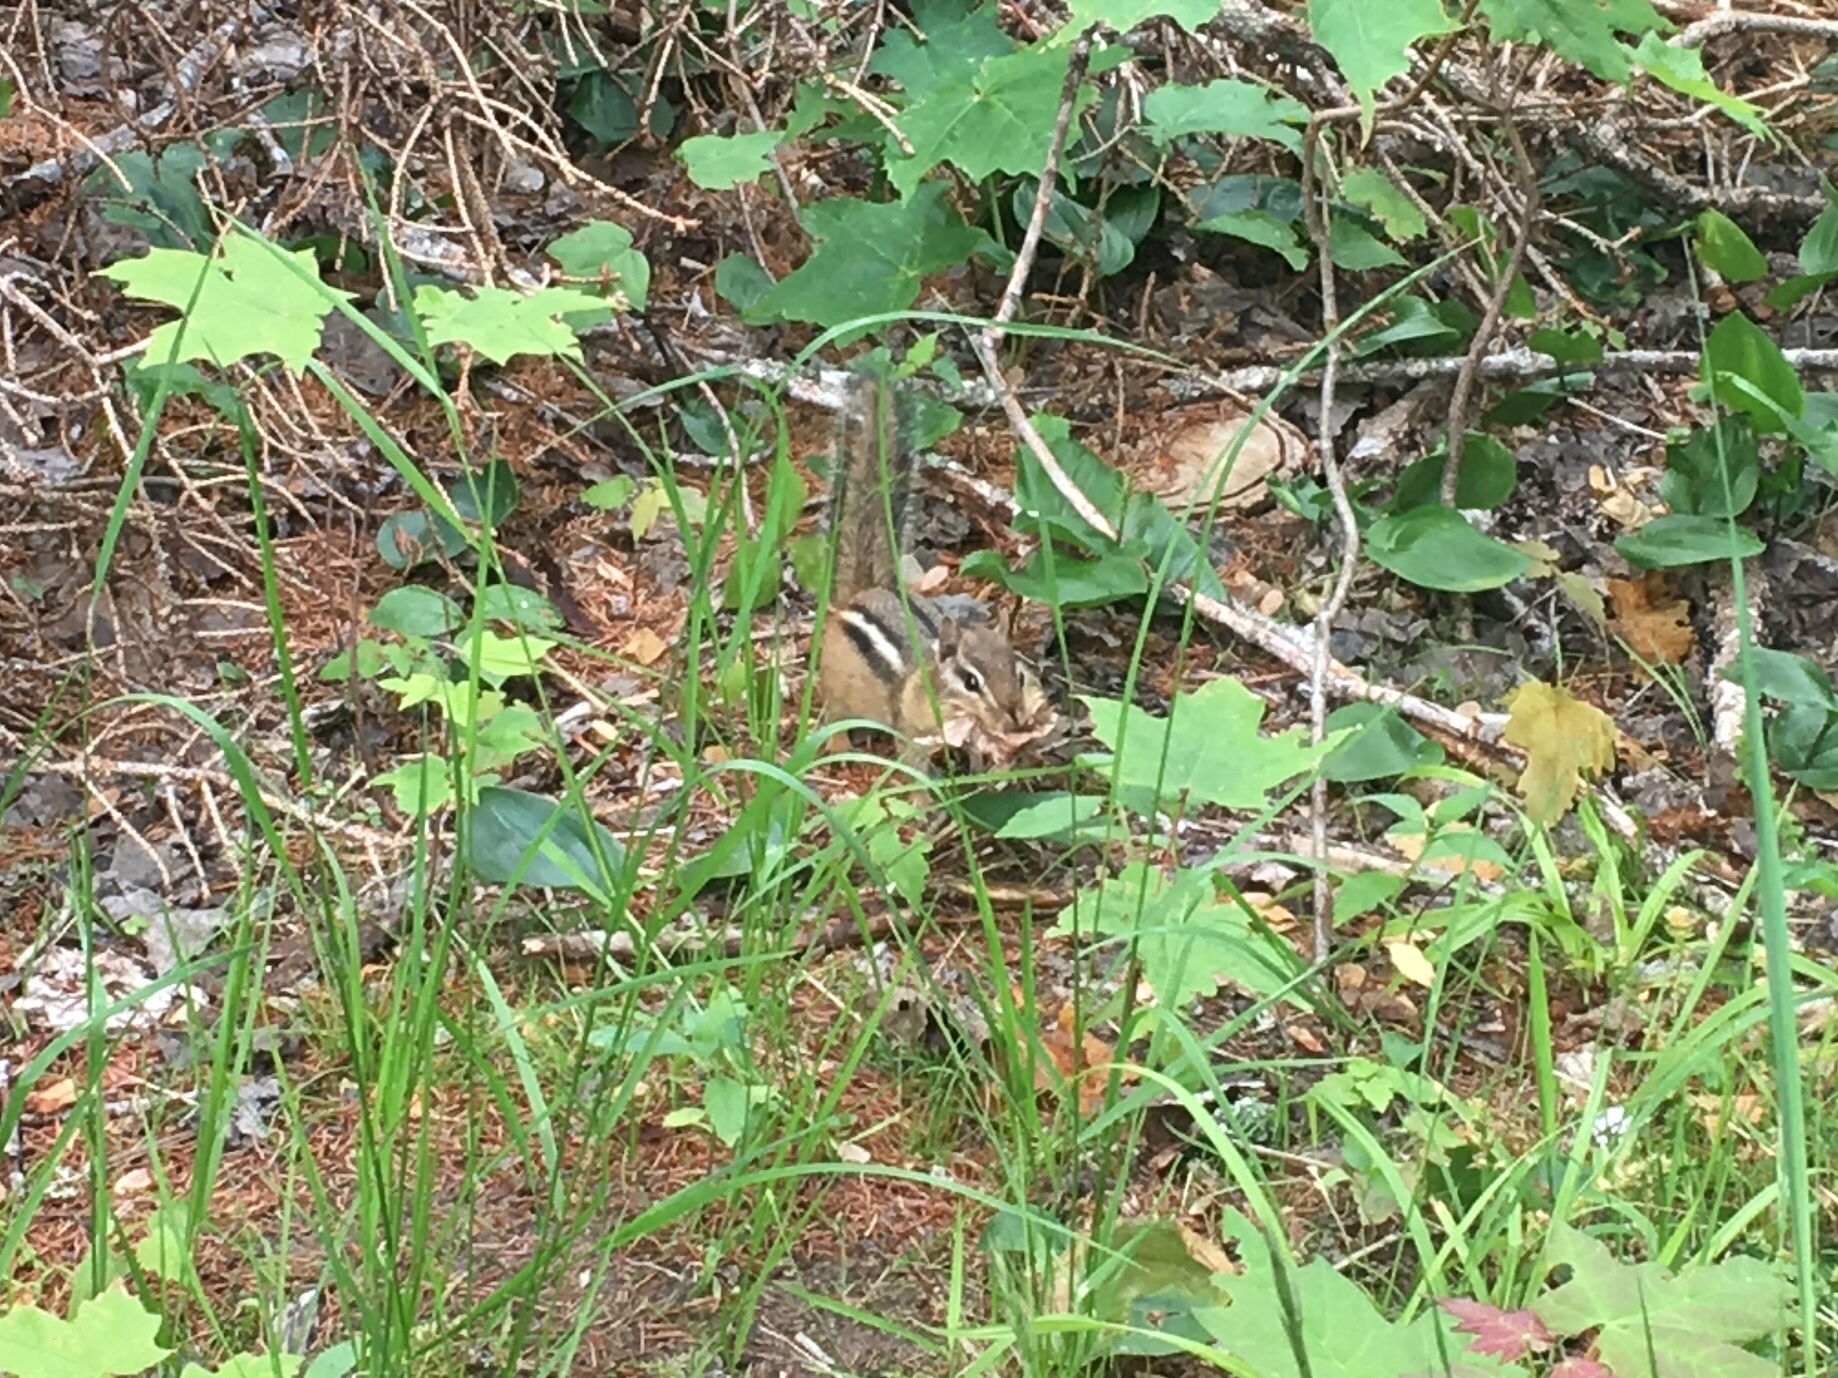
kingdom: Animalia
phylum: Chordata
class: Mammalia
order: Rodentia
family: Sciuridae
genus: Tamias
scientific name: Tamias striatus
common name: Eastern chipmunk
